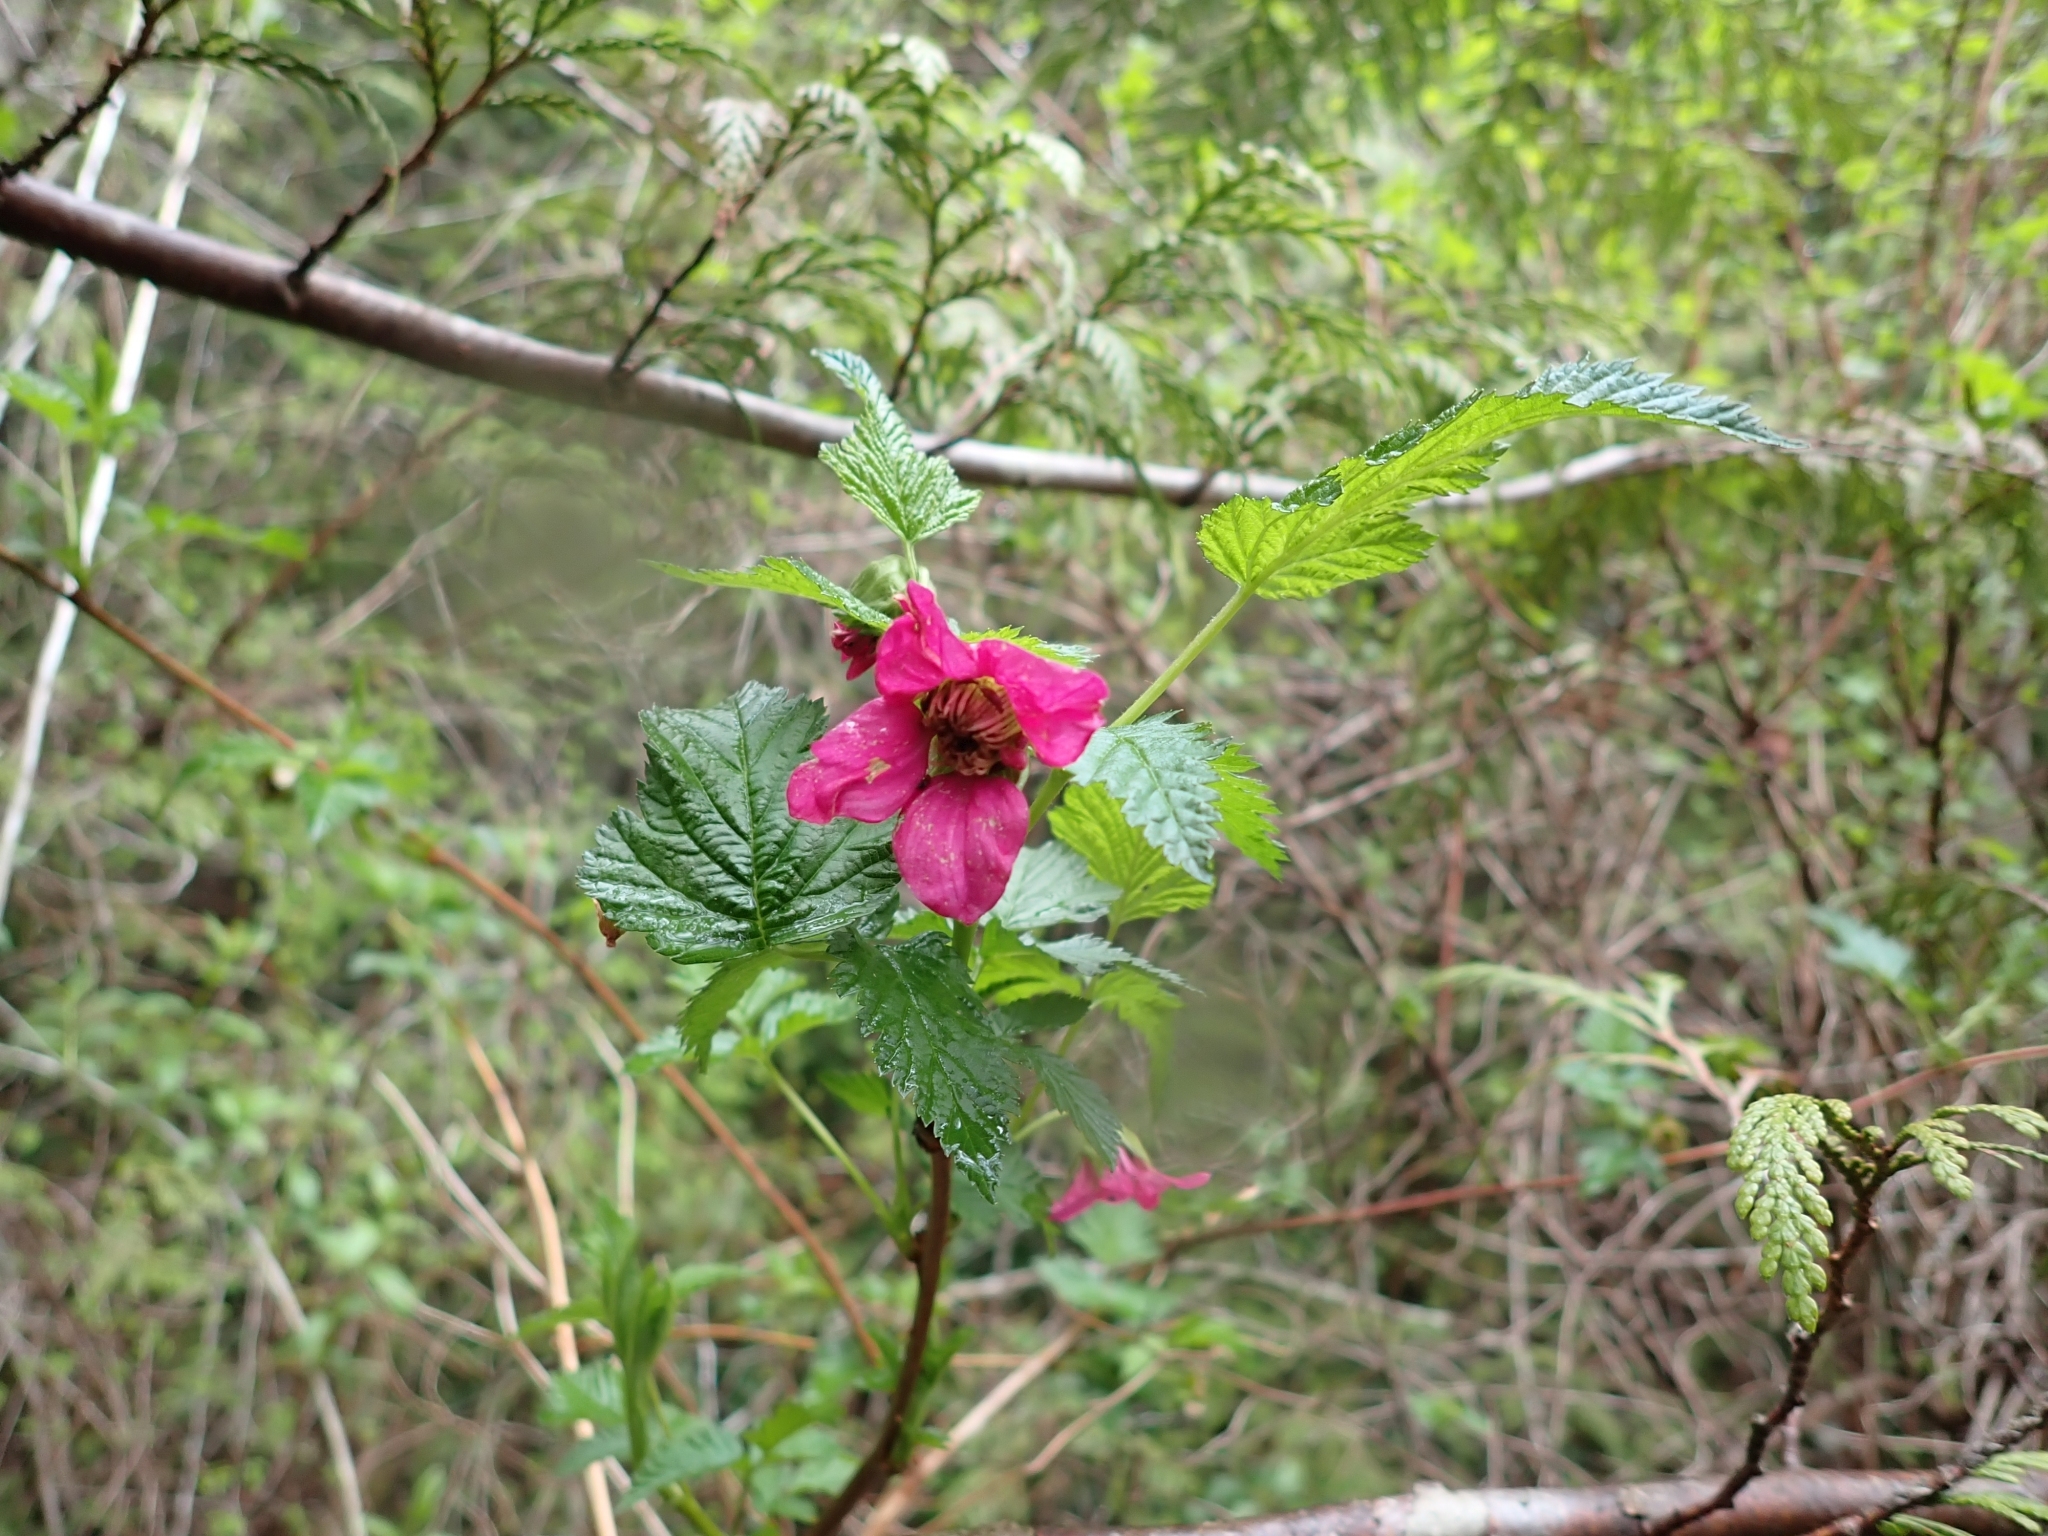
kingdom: Plantae
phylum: Tracheophyta
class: Magnoliopsida
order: Rosales
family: Rosaceae
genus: Rubus
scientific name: Rubus spectabilis
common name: Salmonberry
